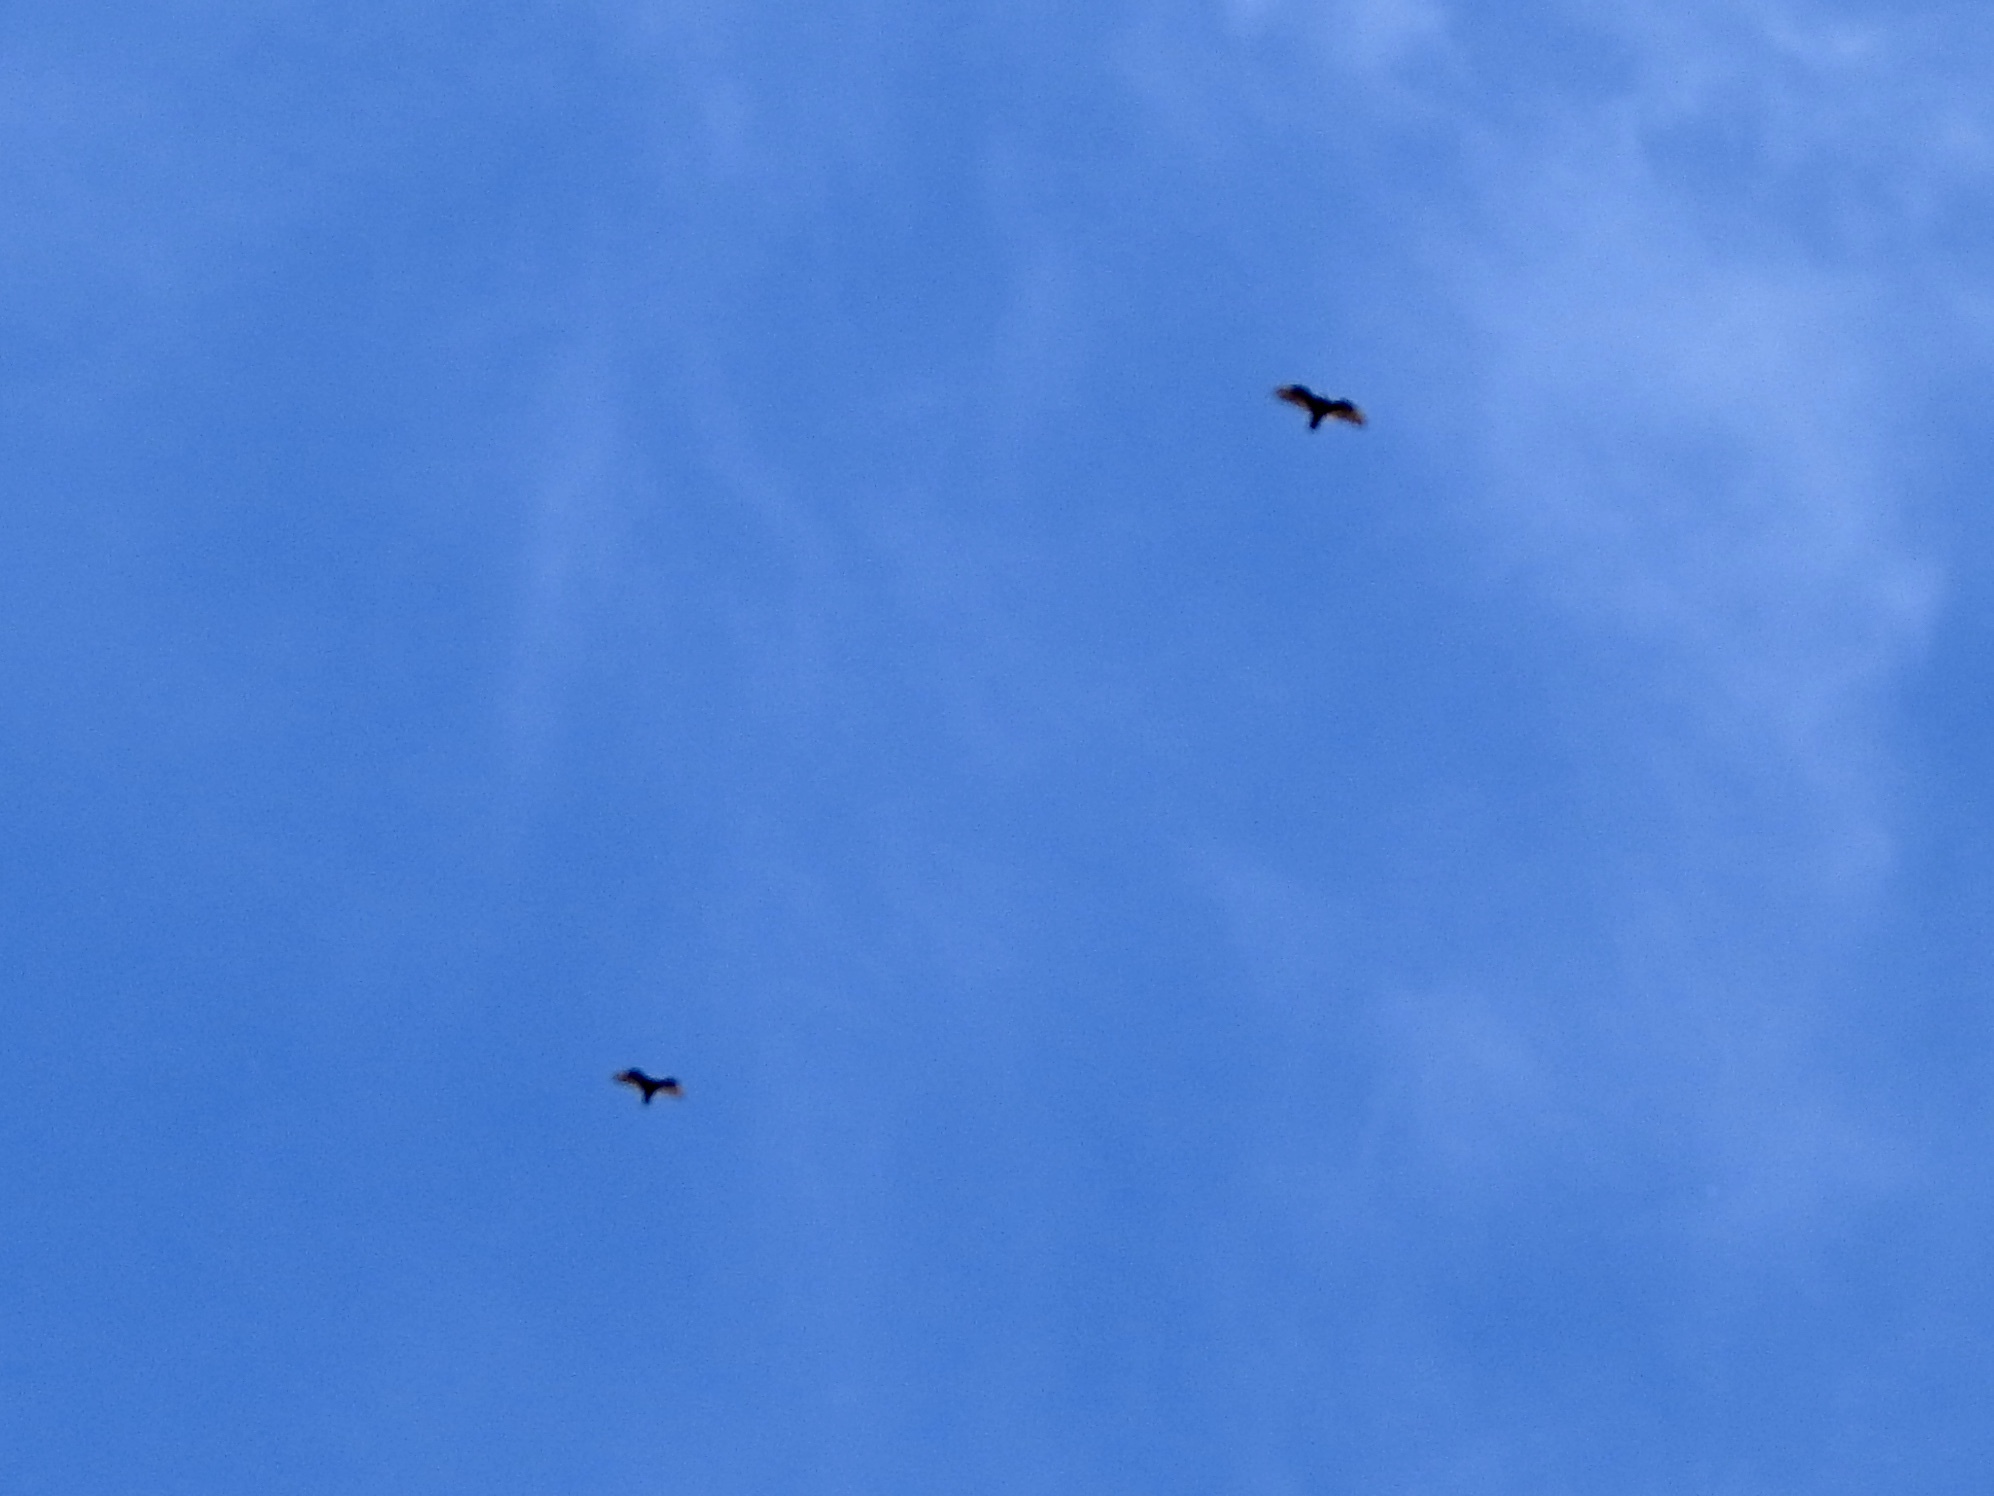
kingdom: Animalia
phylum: Chordata
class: Aves
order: Accipitriformes
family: Cathartidae
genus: Cathartes
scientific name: Cathartes aura
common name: Turkey vulture
